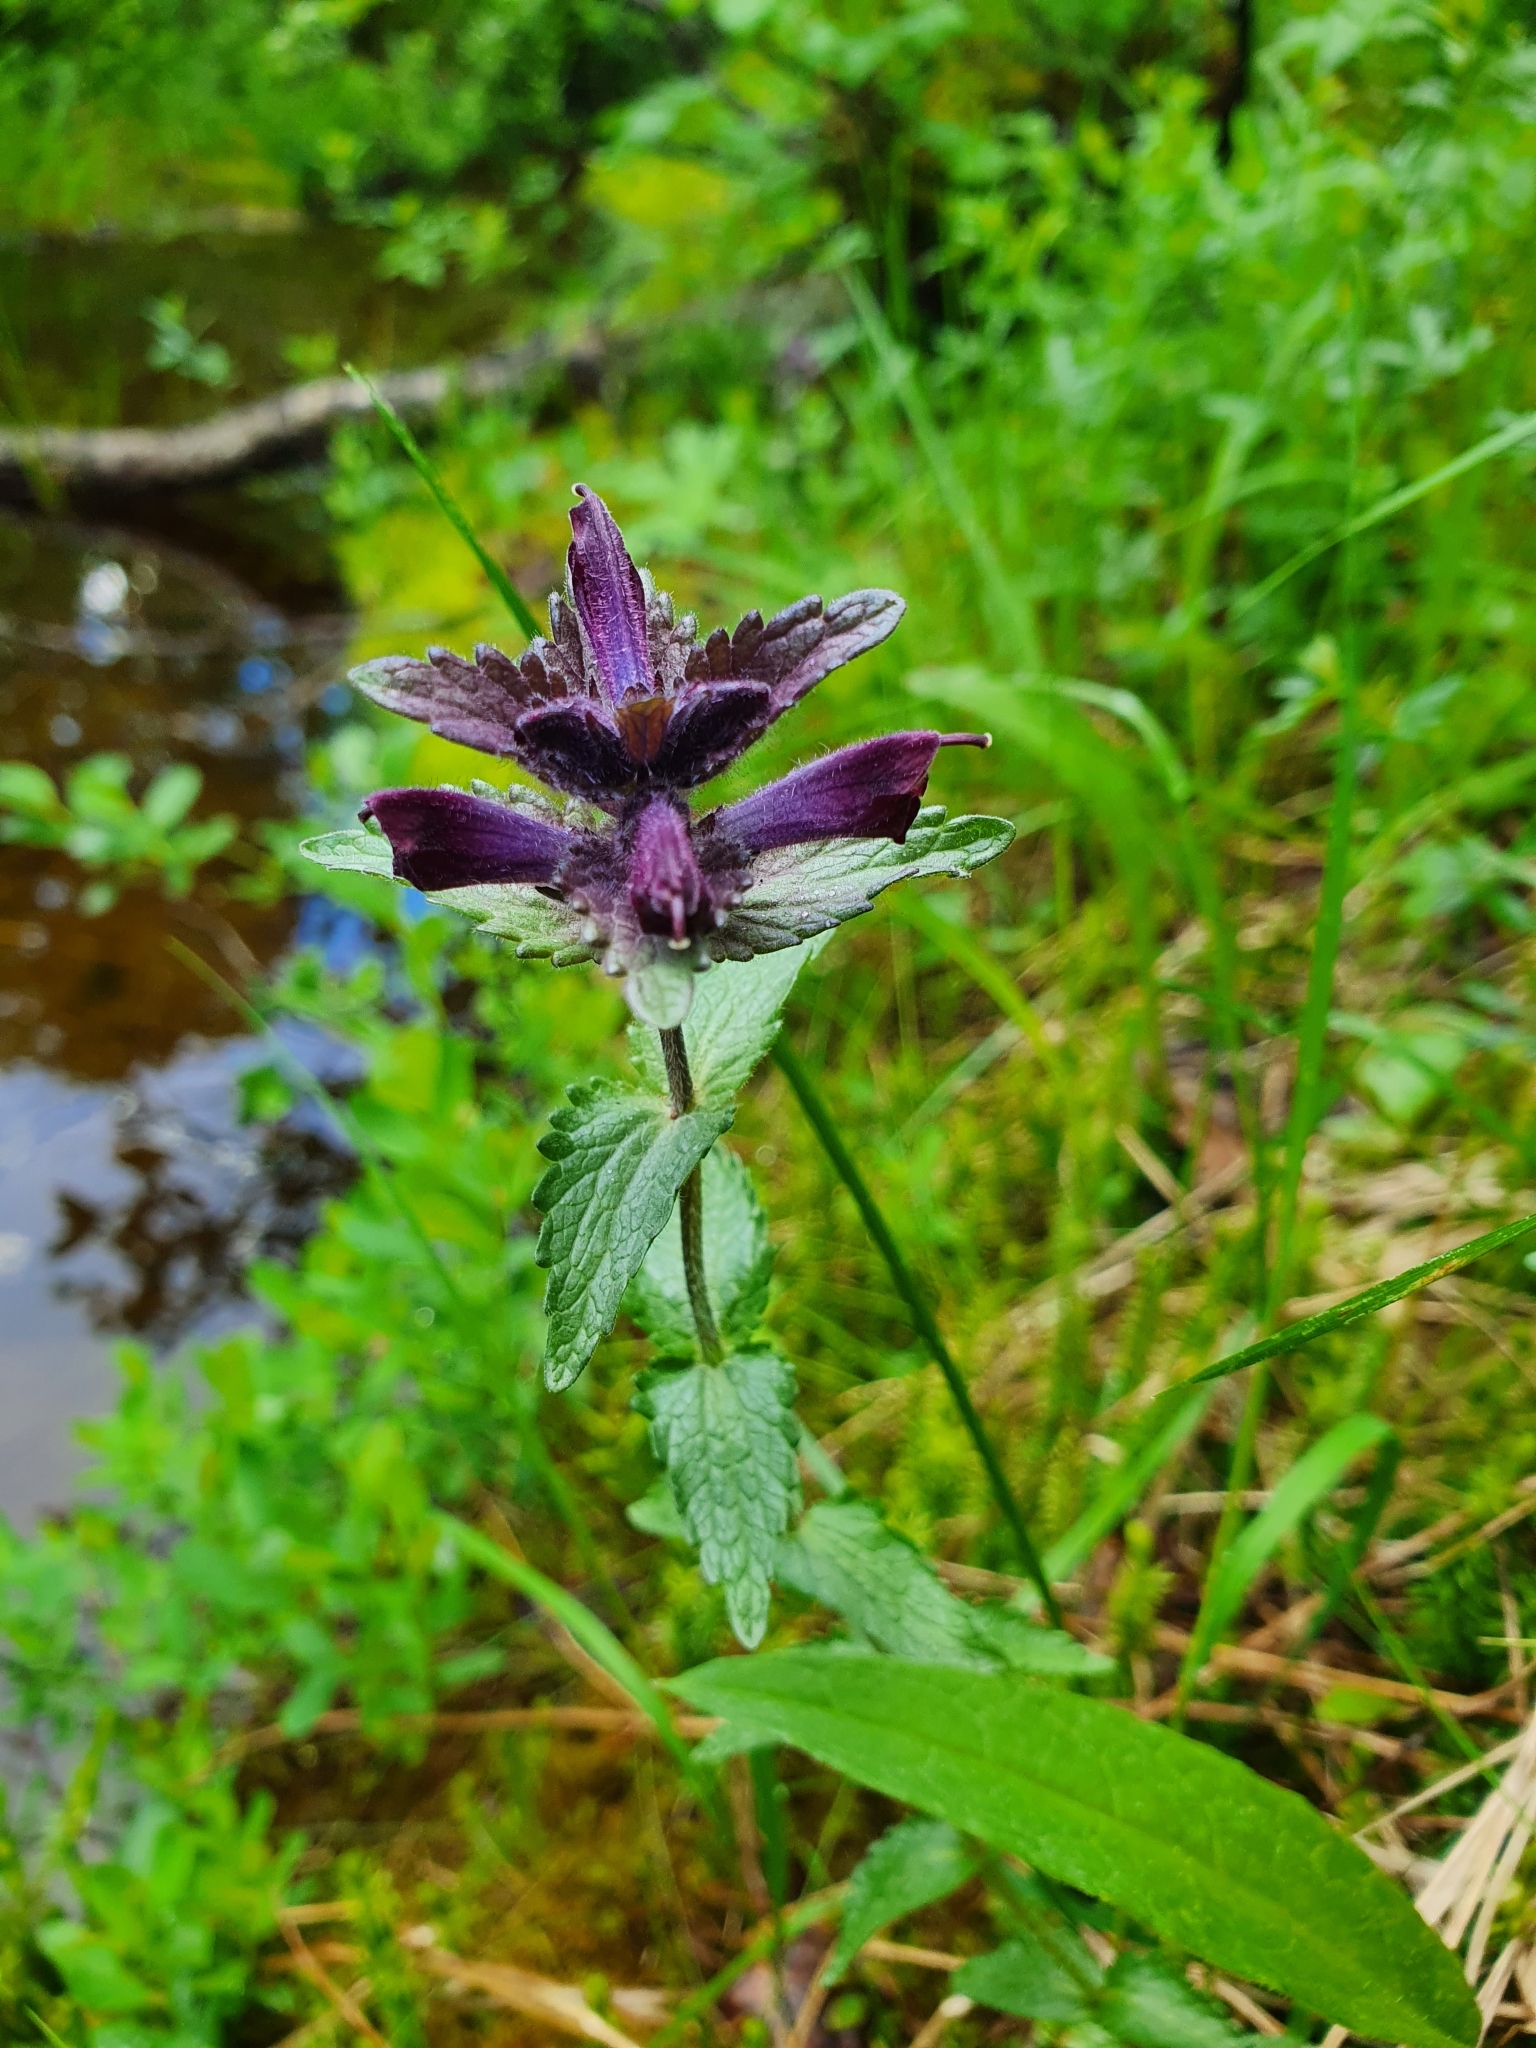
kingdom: Plantae
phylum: Tracheophyta
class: Magnoliopsida
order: Lamiales
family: Orobanchaceae
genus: Bartsia
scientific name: Bartsia alpina
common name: Alpine bartsia
